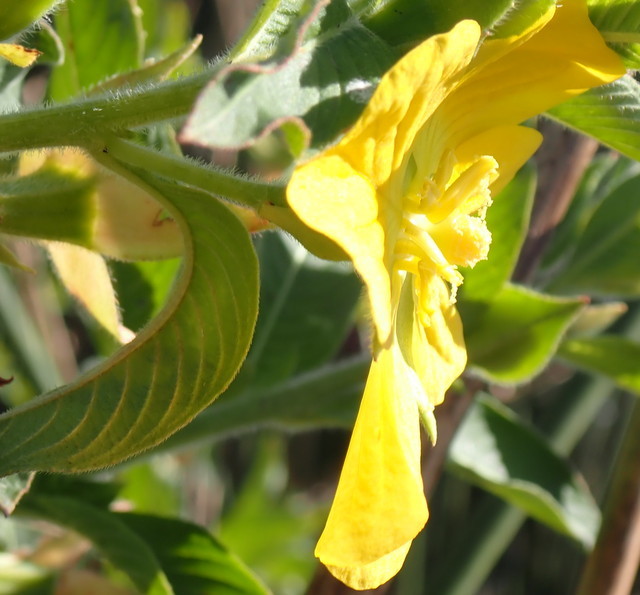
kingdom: Plantae
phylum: Tracheophyta
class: Magnoliopsida
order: Myrtales
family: Onagraceae
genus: Ludwigia
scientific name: Ludwigia peruviana
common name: Peruvian primrose-willow
